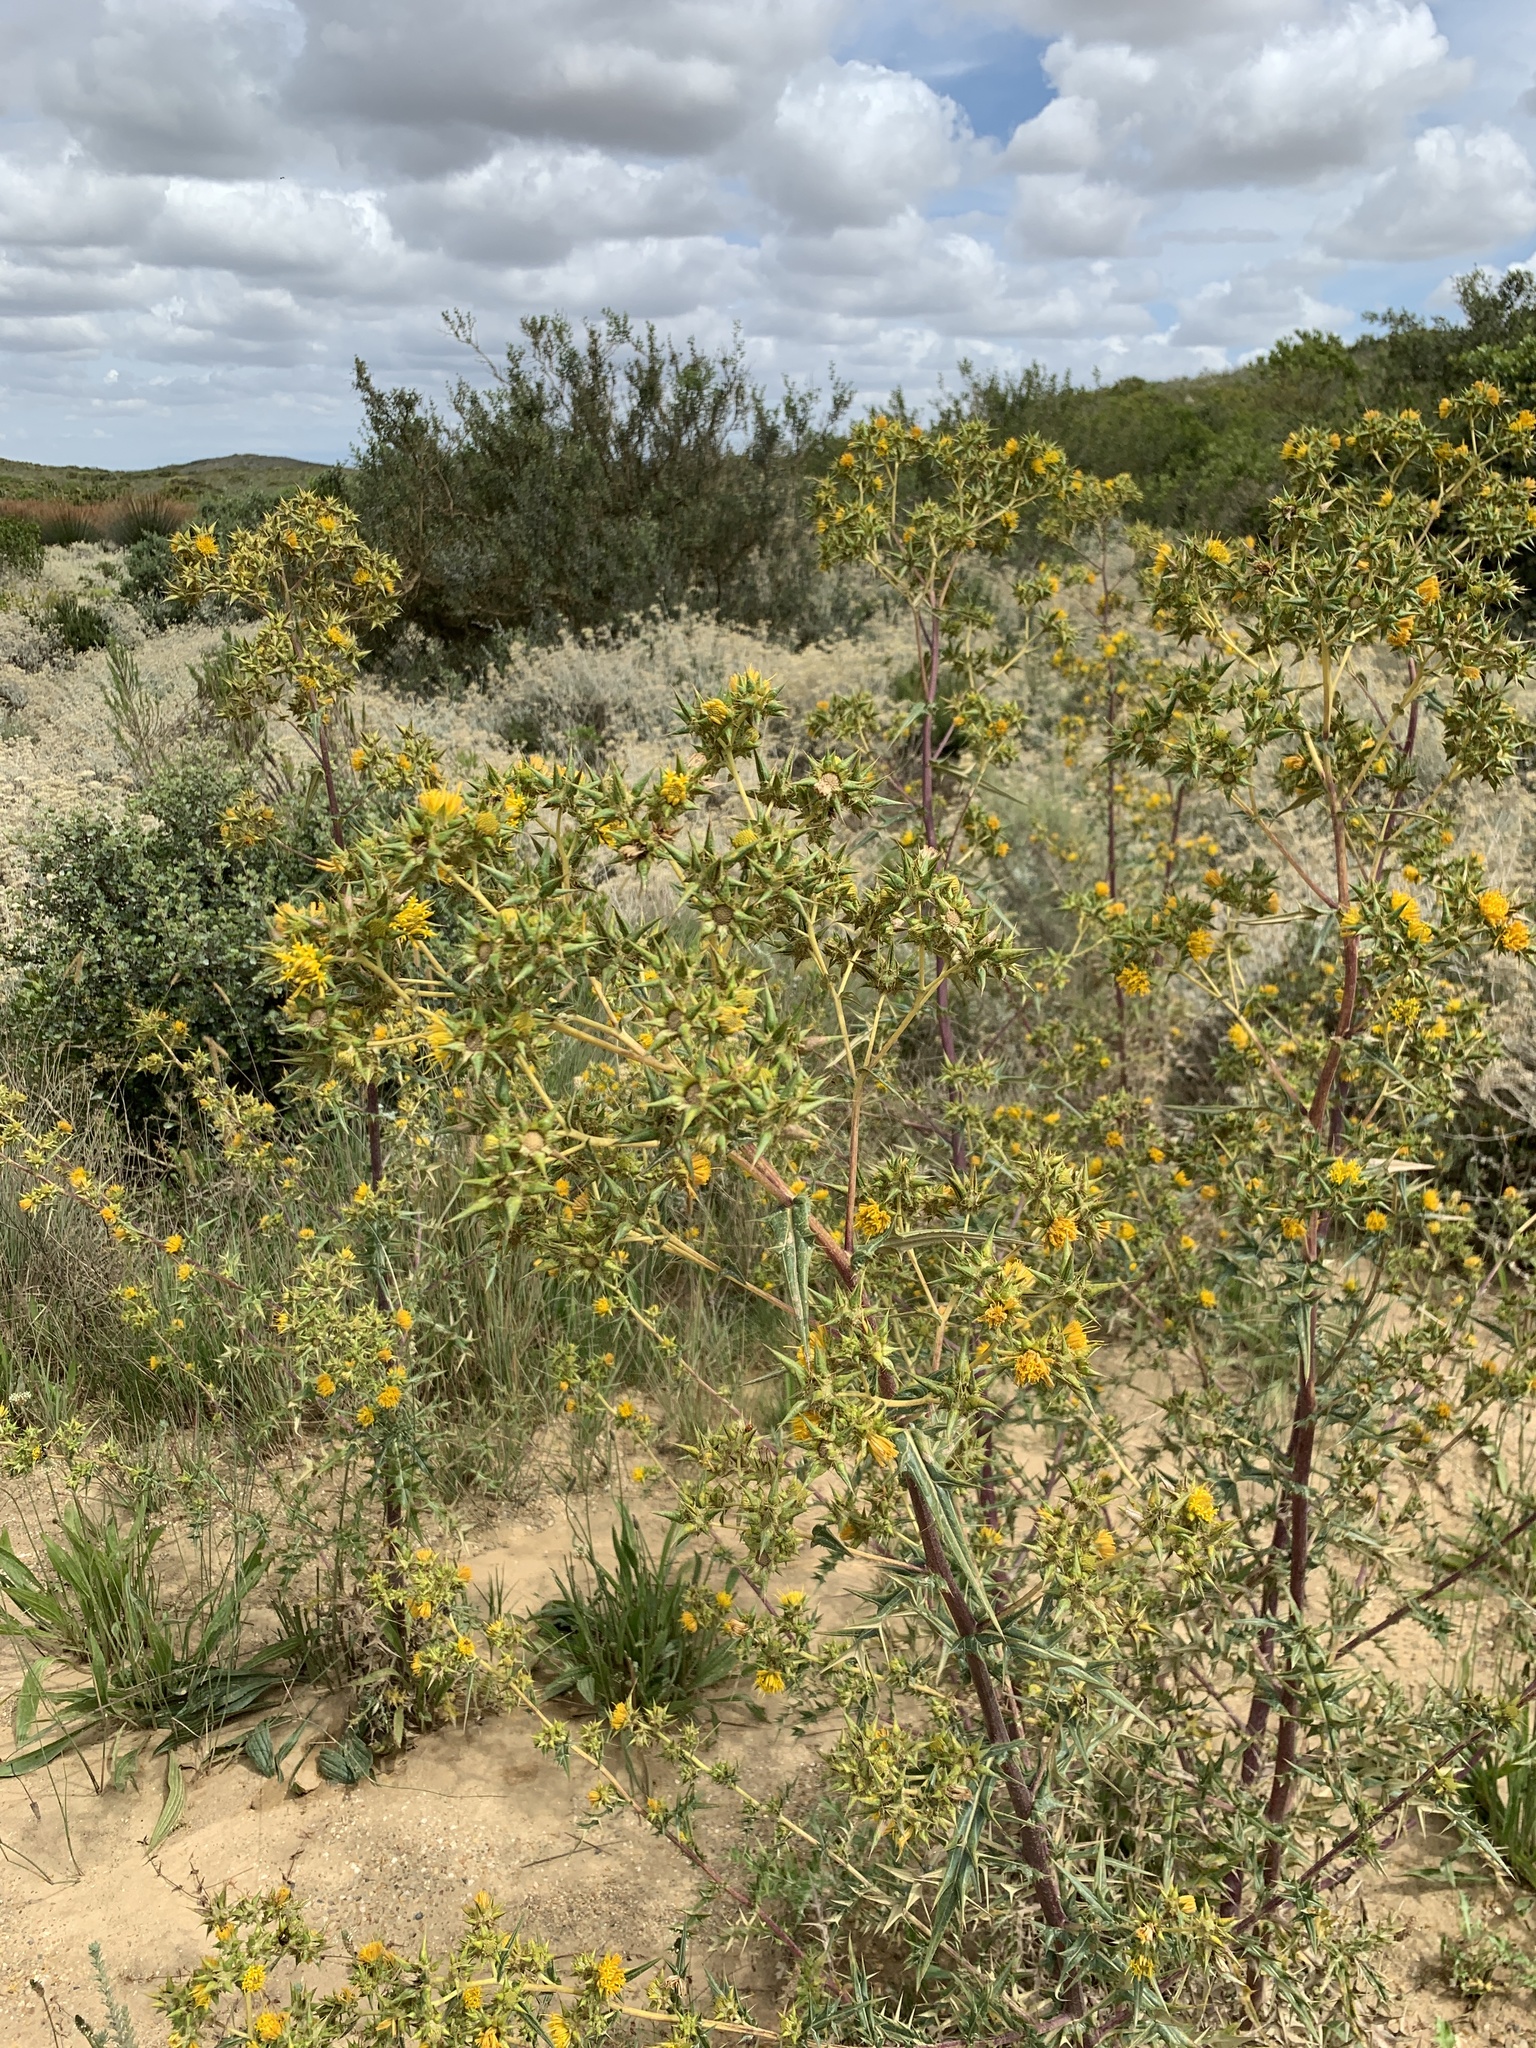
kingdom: Plantae
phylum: Tracheophyta
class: Magnoliopsida
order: Asterales
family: Asteraceae
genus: Berkheya
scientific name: Berkheya rigida
